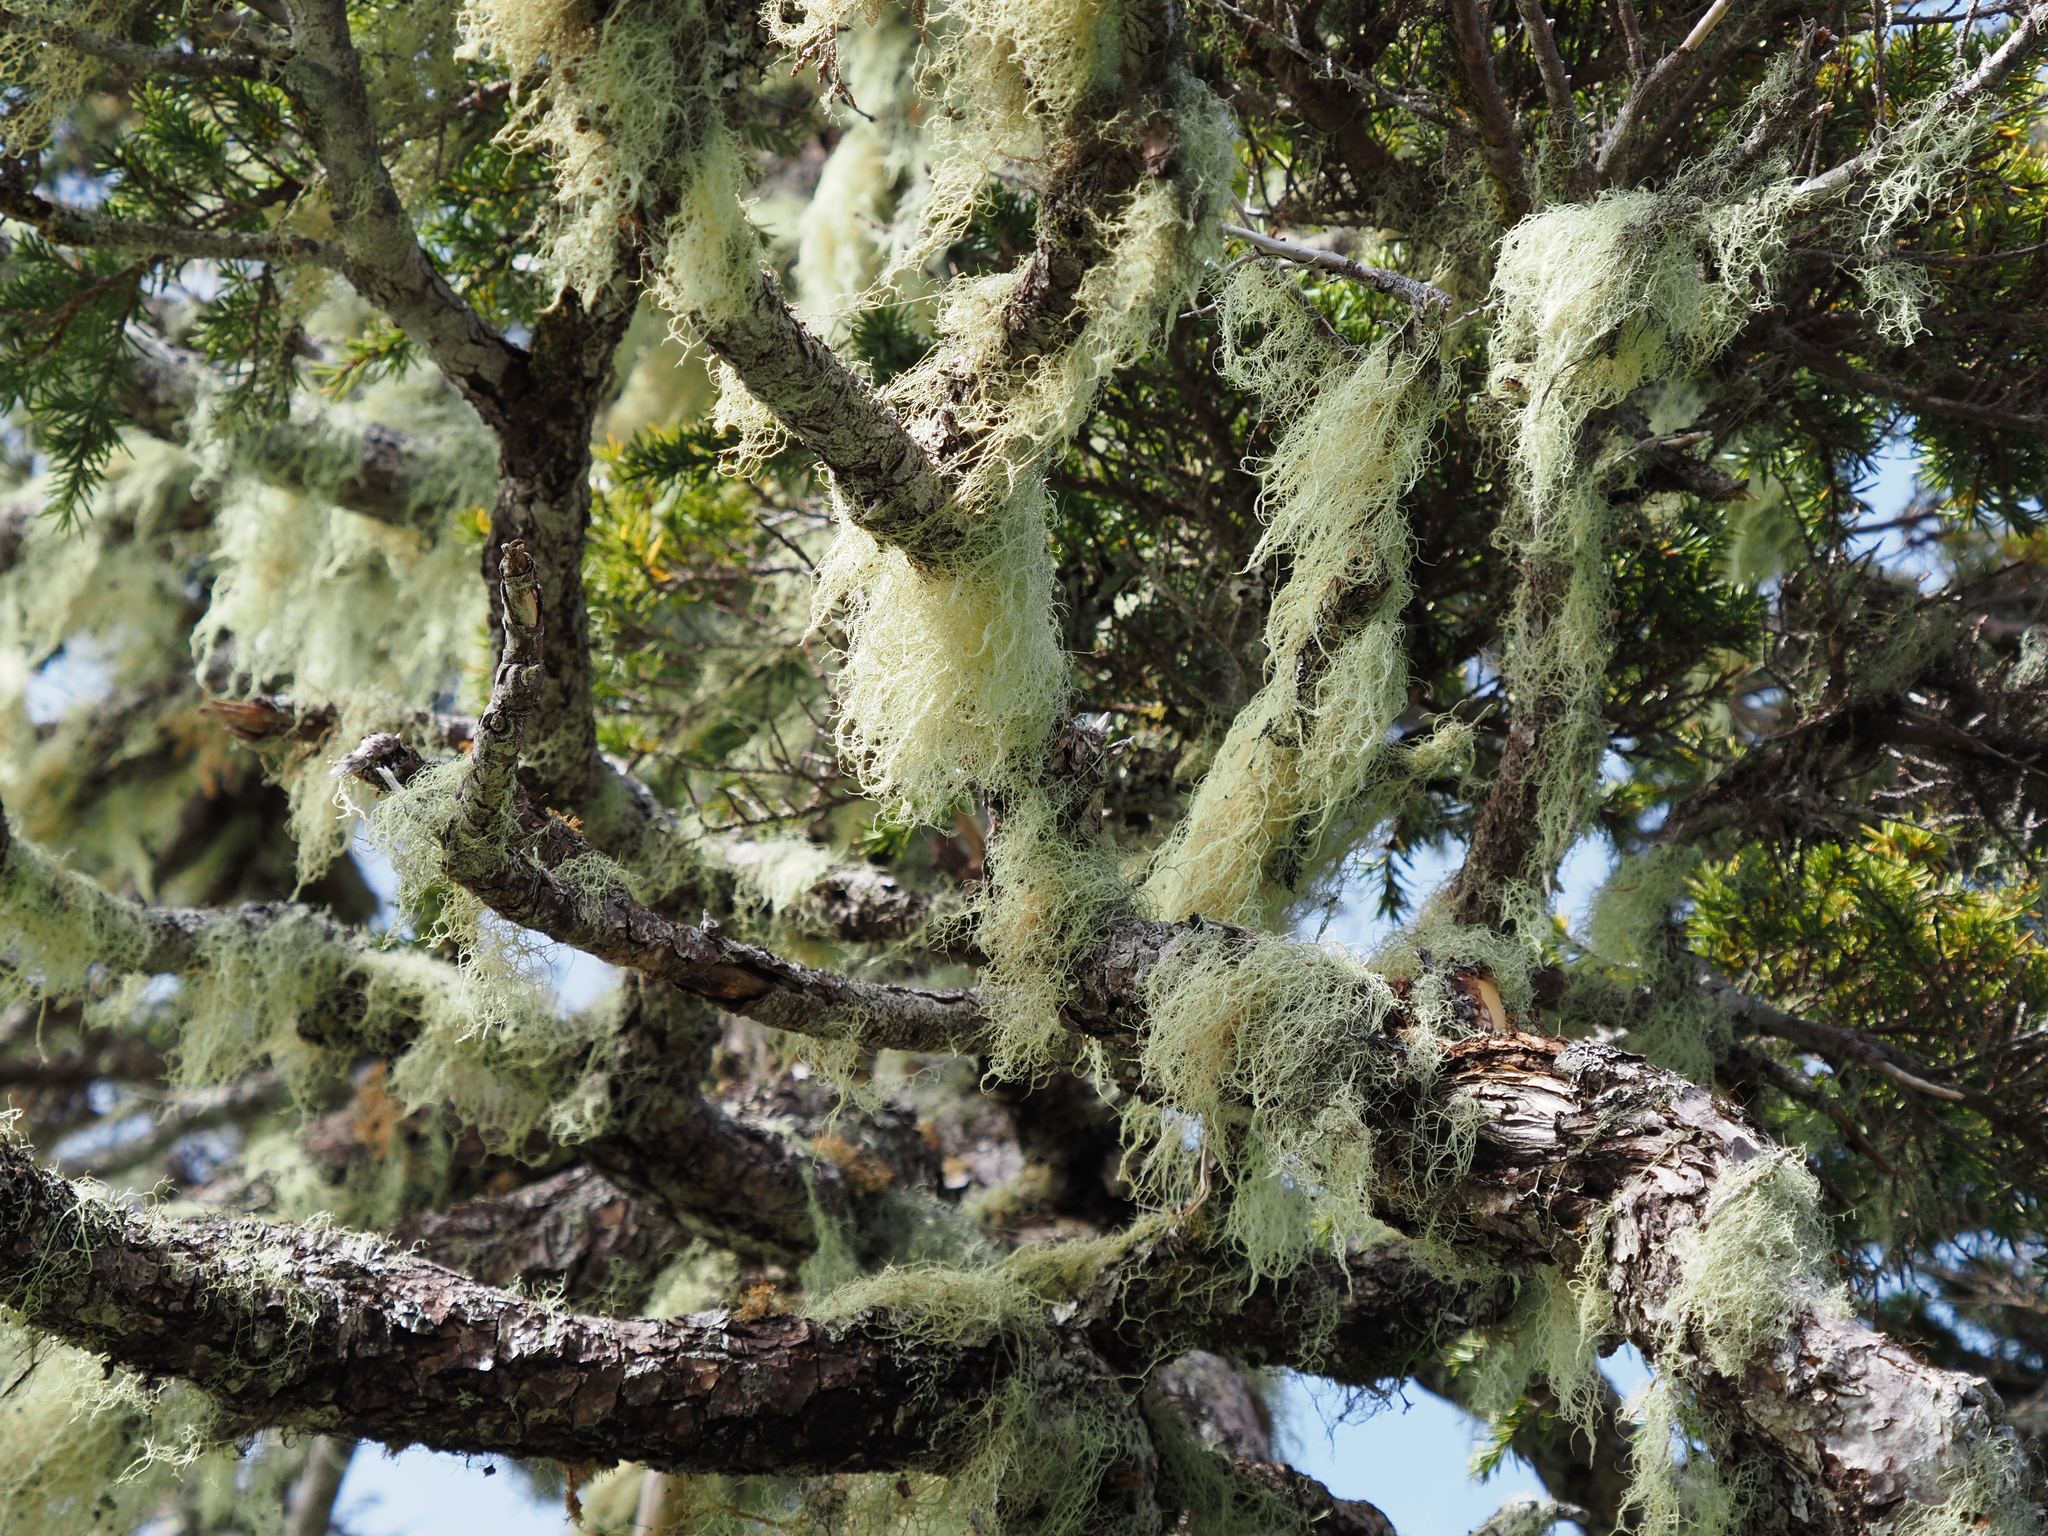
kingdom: Fungi
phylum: Ascomycota
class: Lecanoromycetes
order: Lecanorales
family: Parmeliaceae
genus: Alectoria
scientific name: Alectoria sarmentosa
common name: Witch's hair
